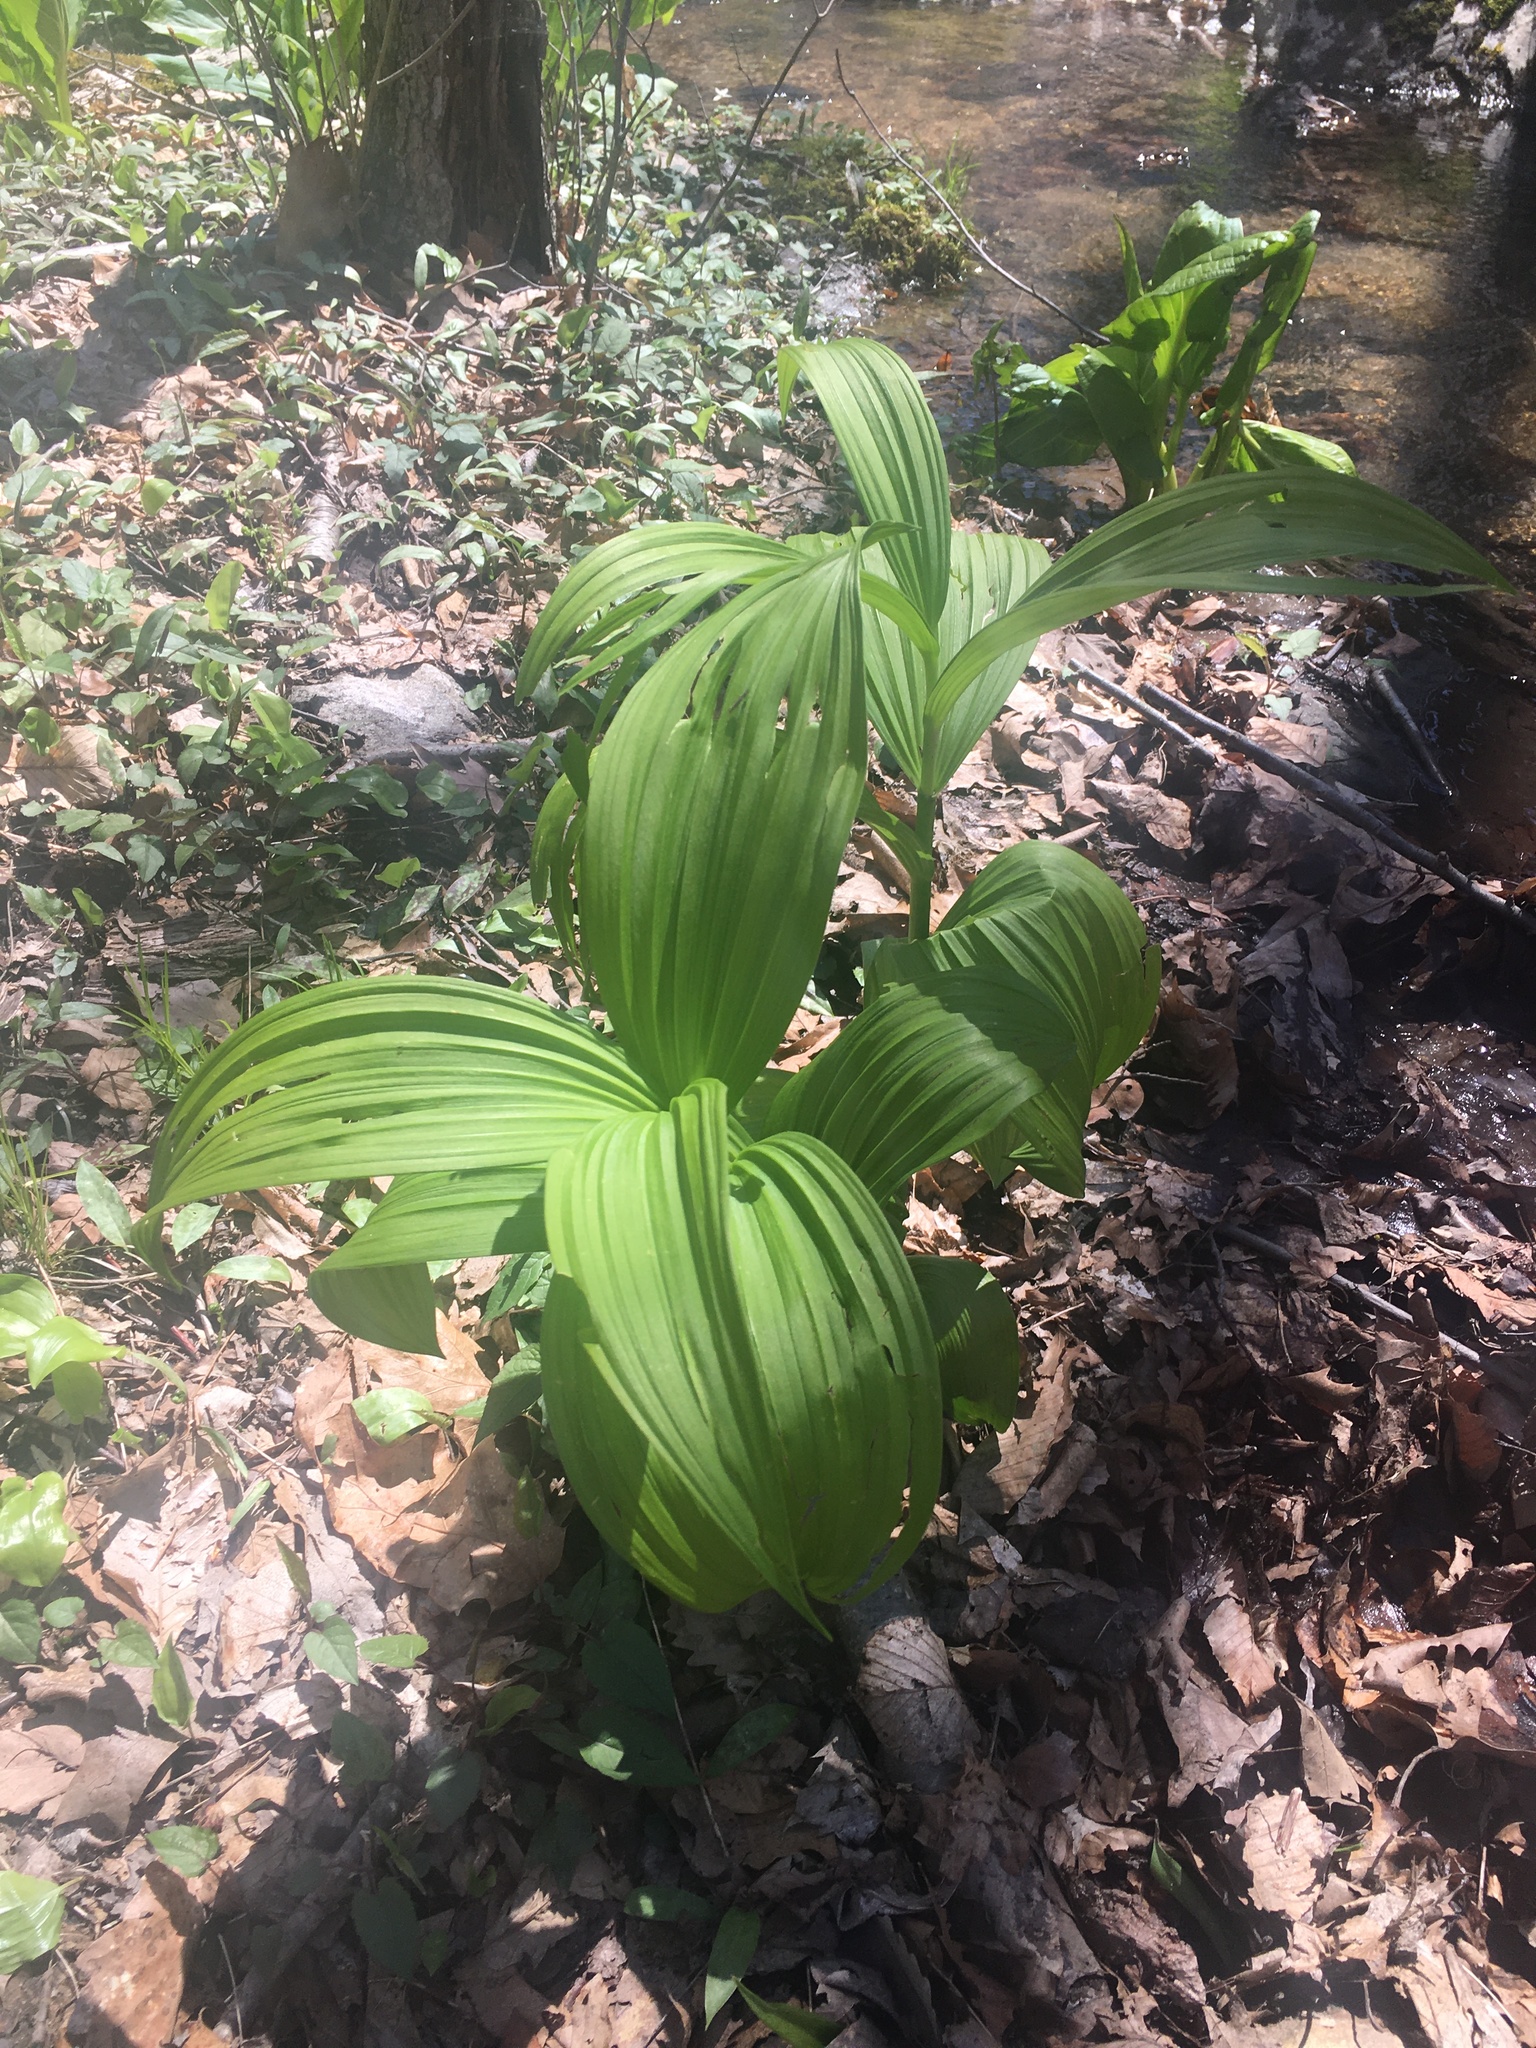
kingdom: Plantae
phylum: Tracheophyta
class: Liliopsida
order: Liliales
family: Melanthiaceae
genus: Veratrum
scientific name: Veratrum viride
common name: American false hellebore
